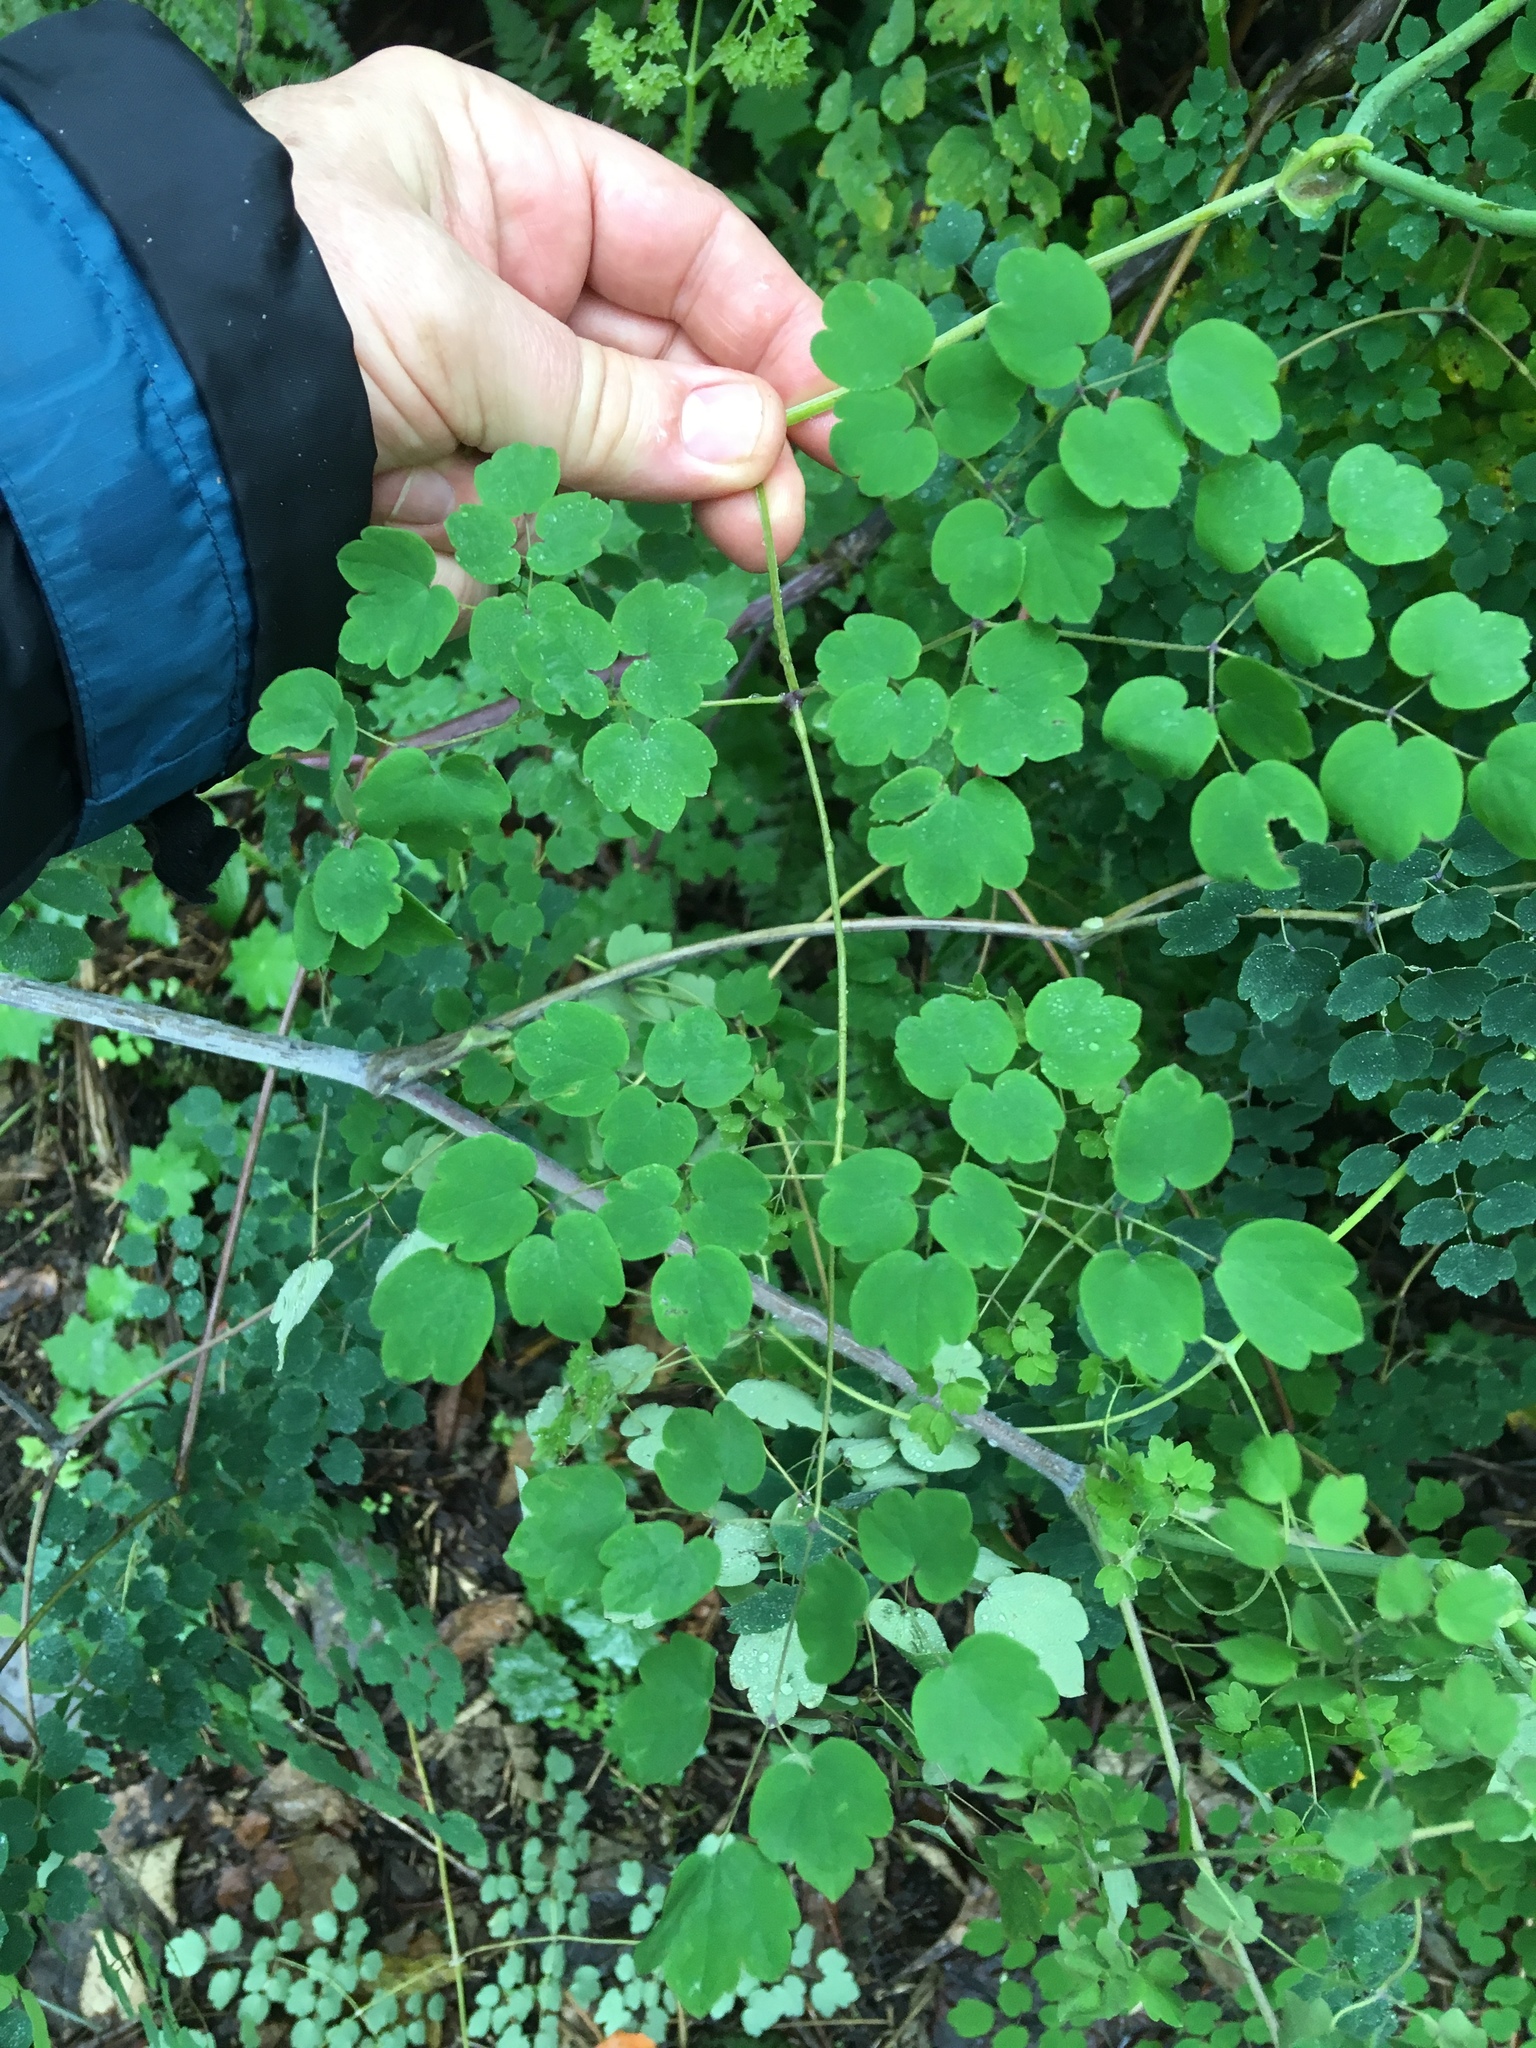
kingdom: Plantae
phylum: Tracheophyta
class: Magnoliopsida
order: Ranunculales
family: Ranunculaceae
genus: Thalictrum
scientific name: Thalictrum podocarpum
